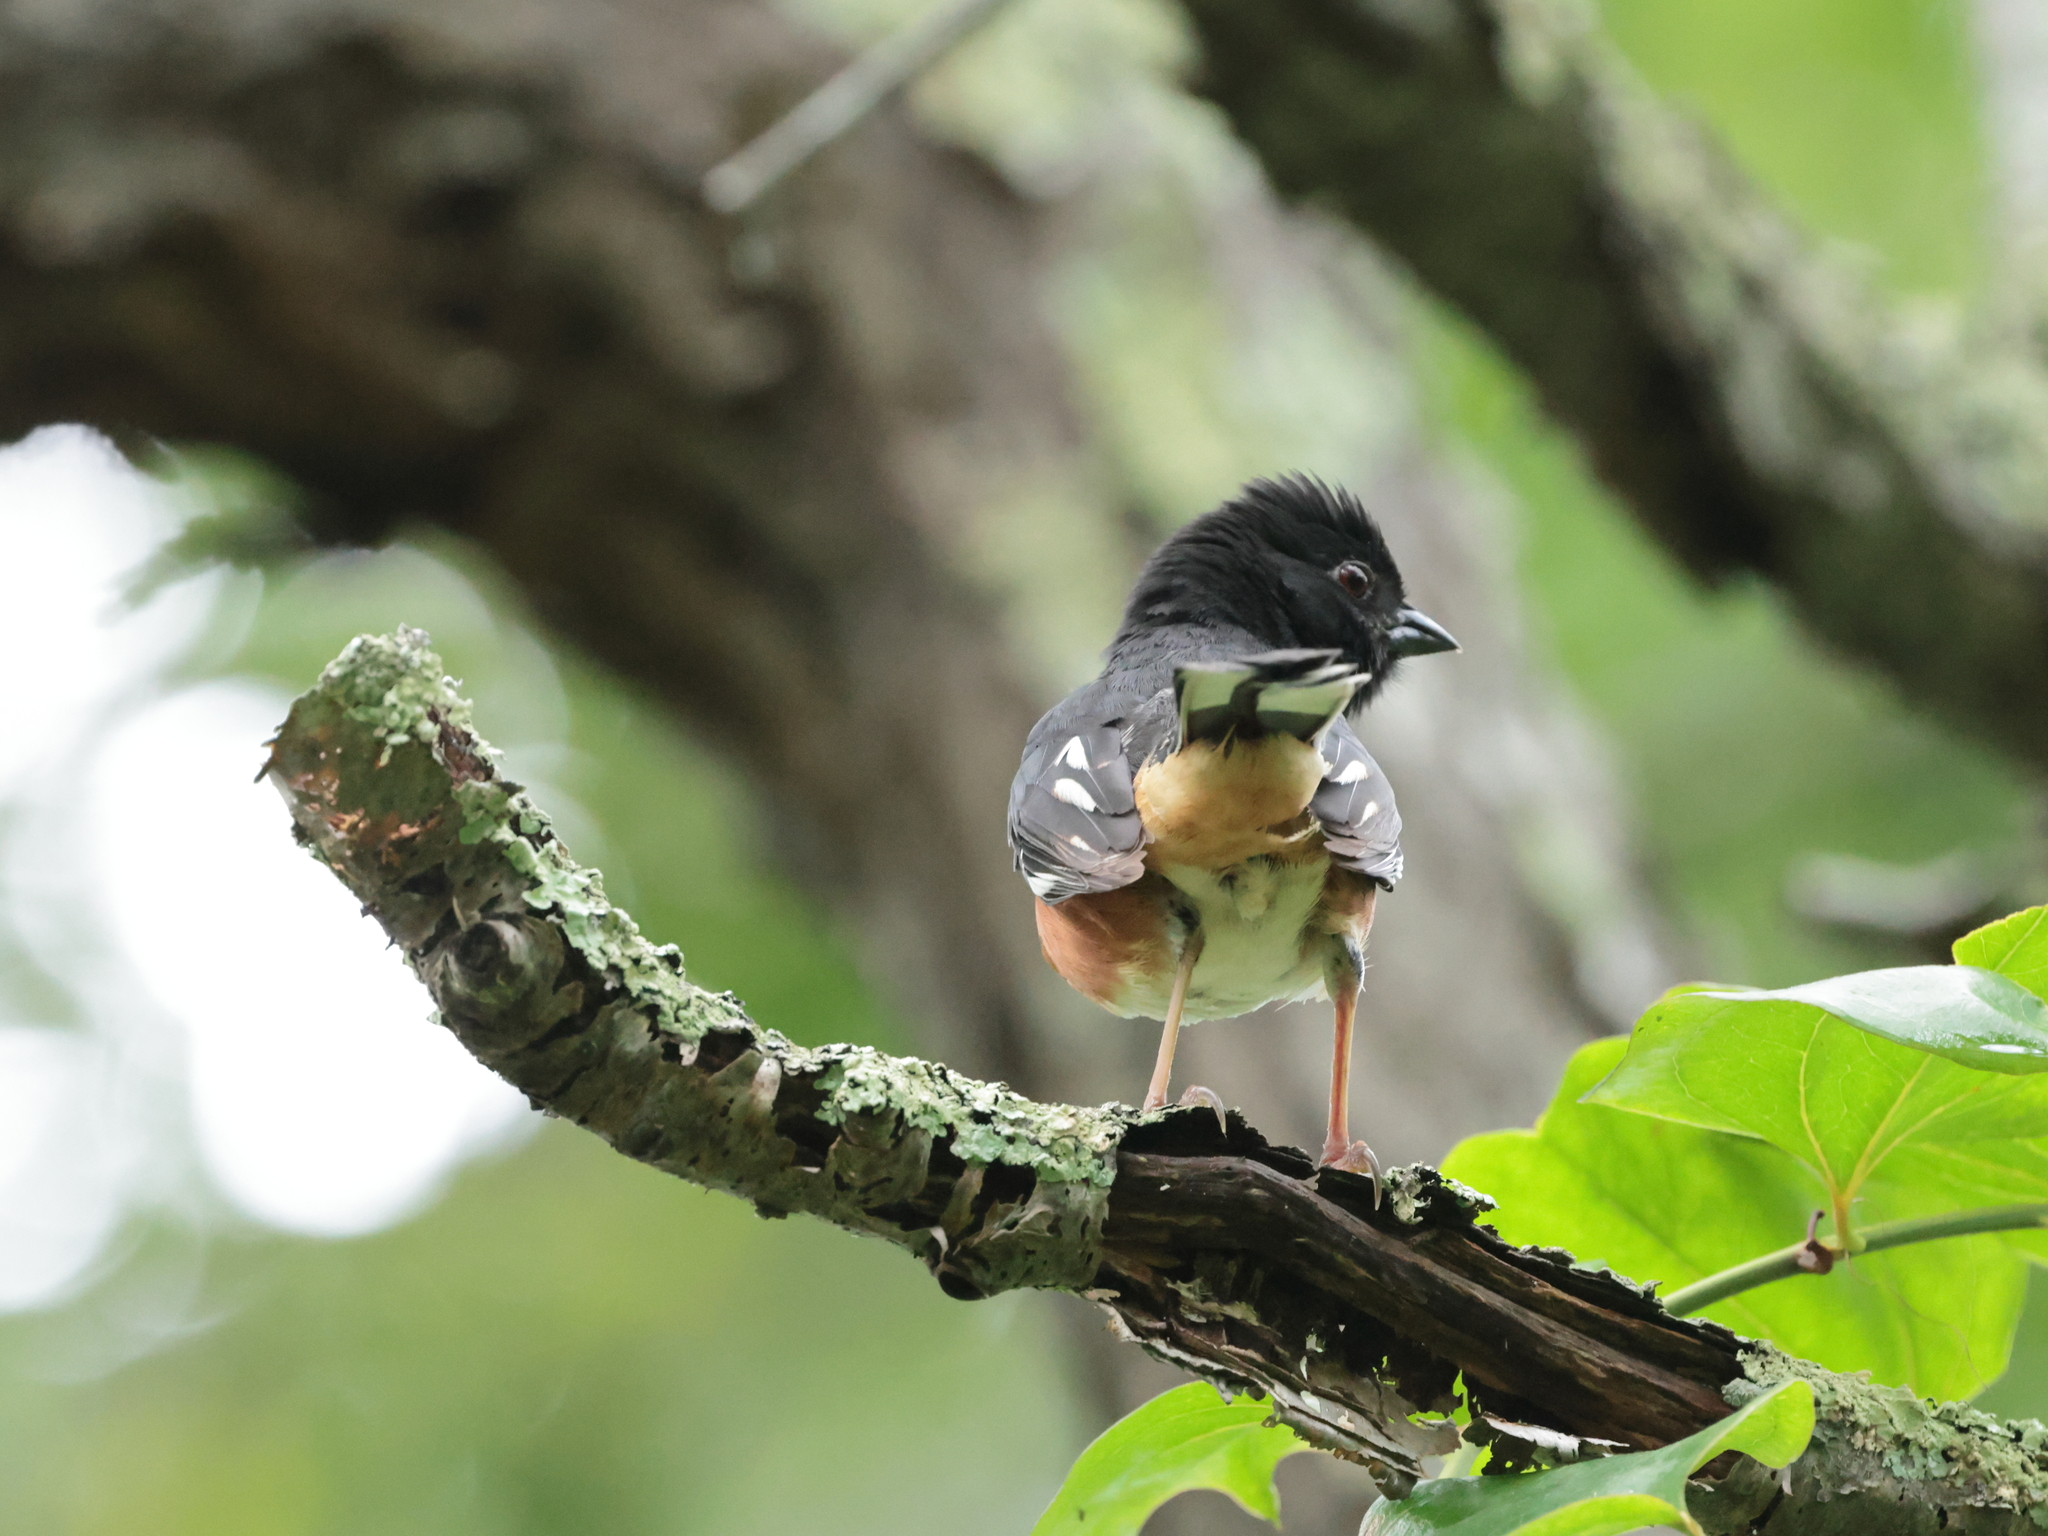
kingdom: Animalia
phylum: Chordata
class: Aves
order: Passeriformes
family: Passerellidae
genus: Pipilo
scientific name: Pipilo erythrophthalmus
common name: Eastern towhee
